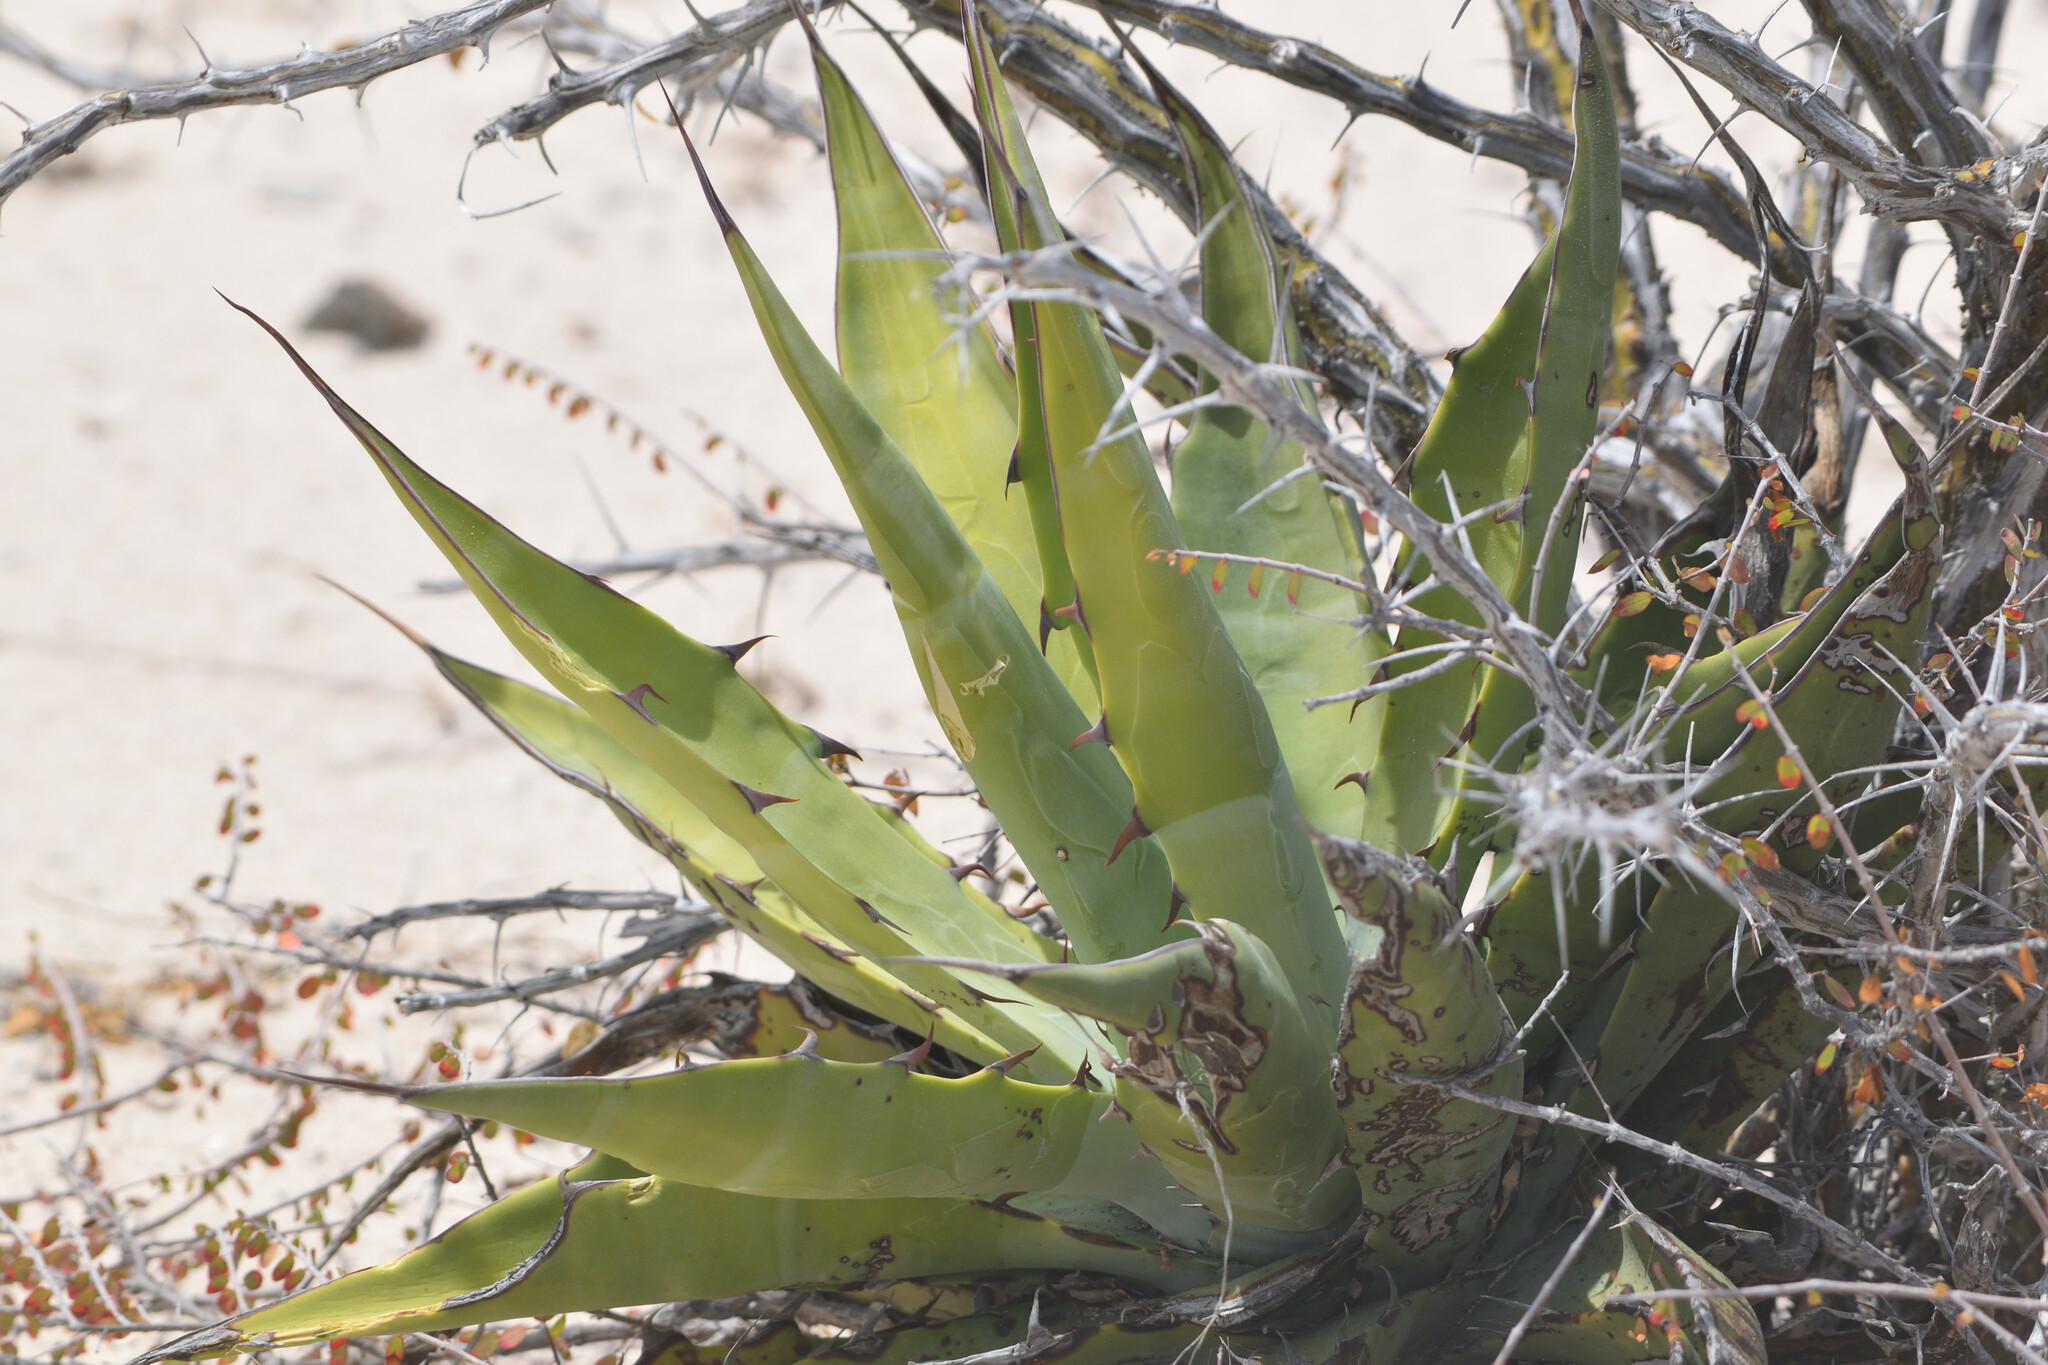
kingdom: Plantae
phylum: Tracheophyta
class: Liliopsida
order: Asparagales
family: Asparagaceae
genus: Agave
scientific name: Agave sobria
